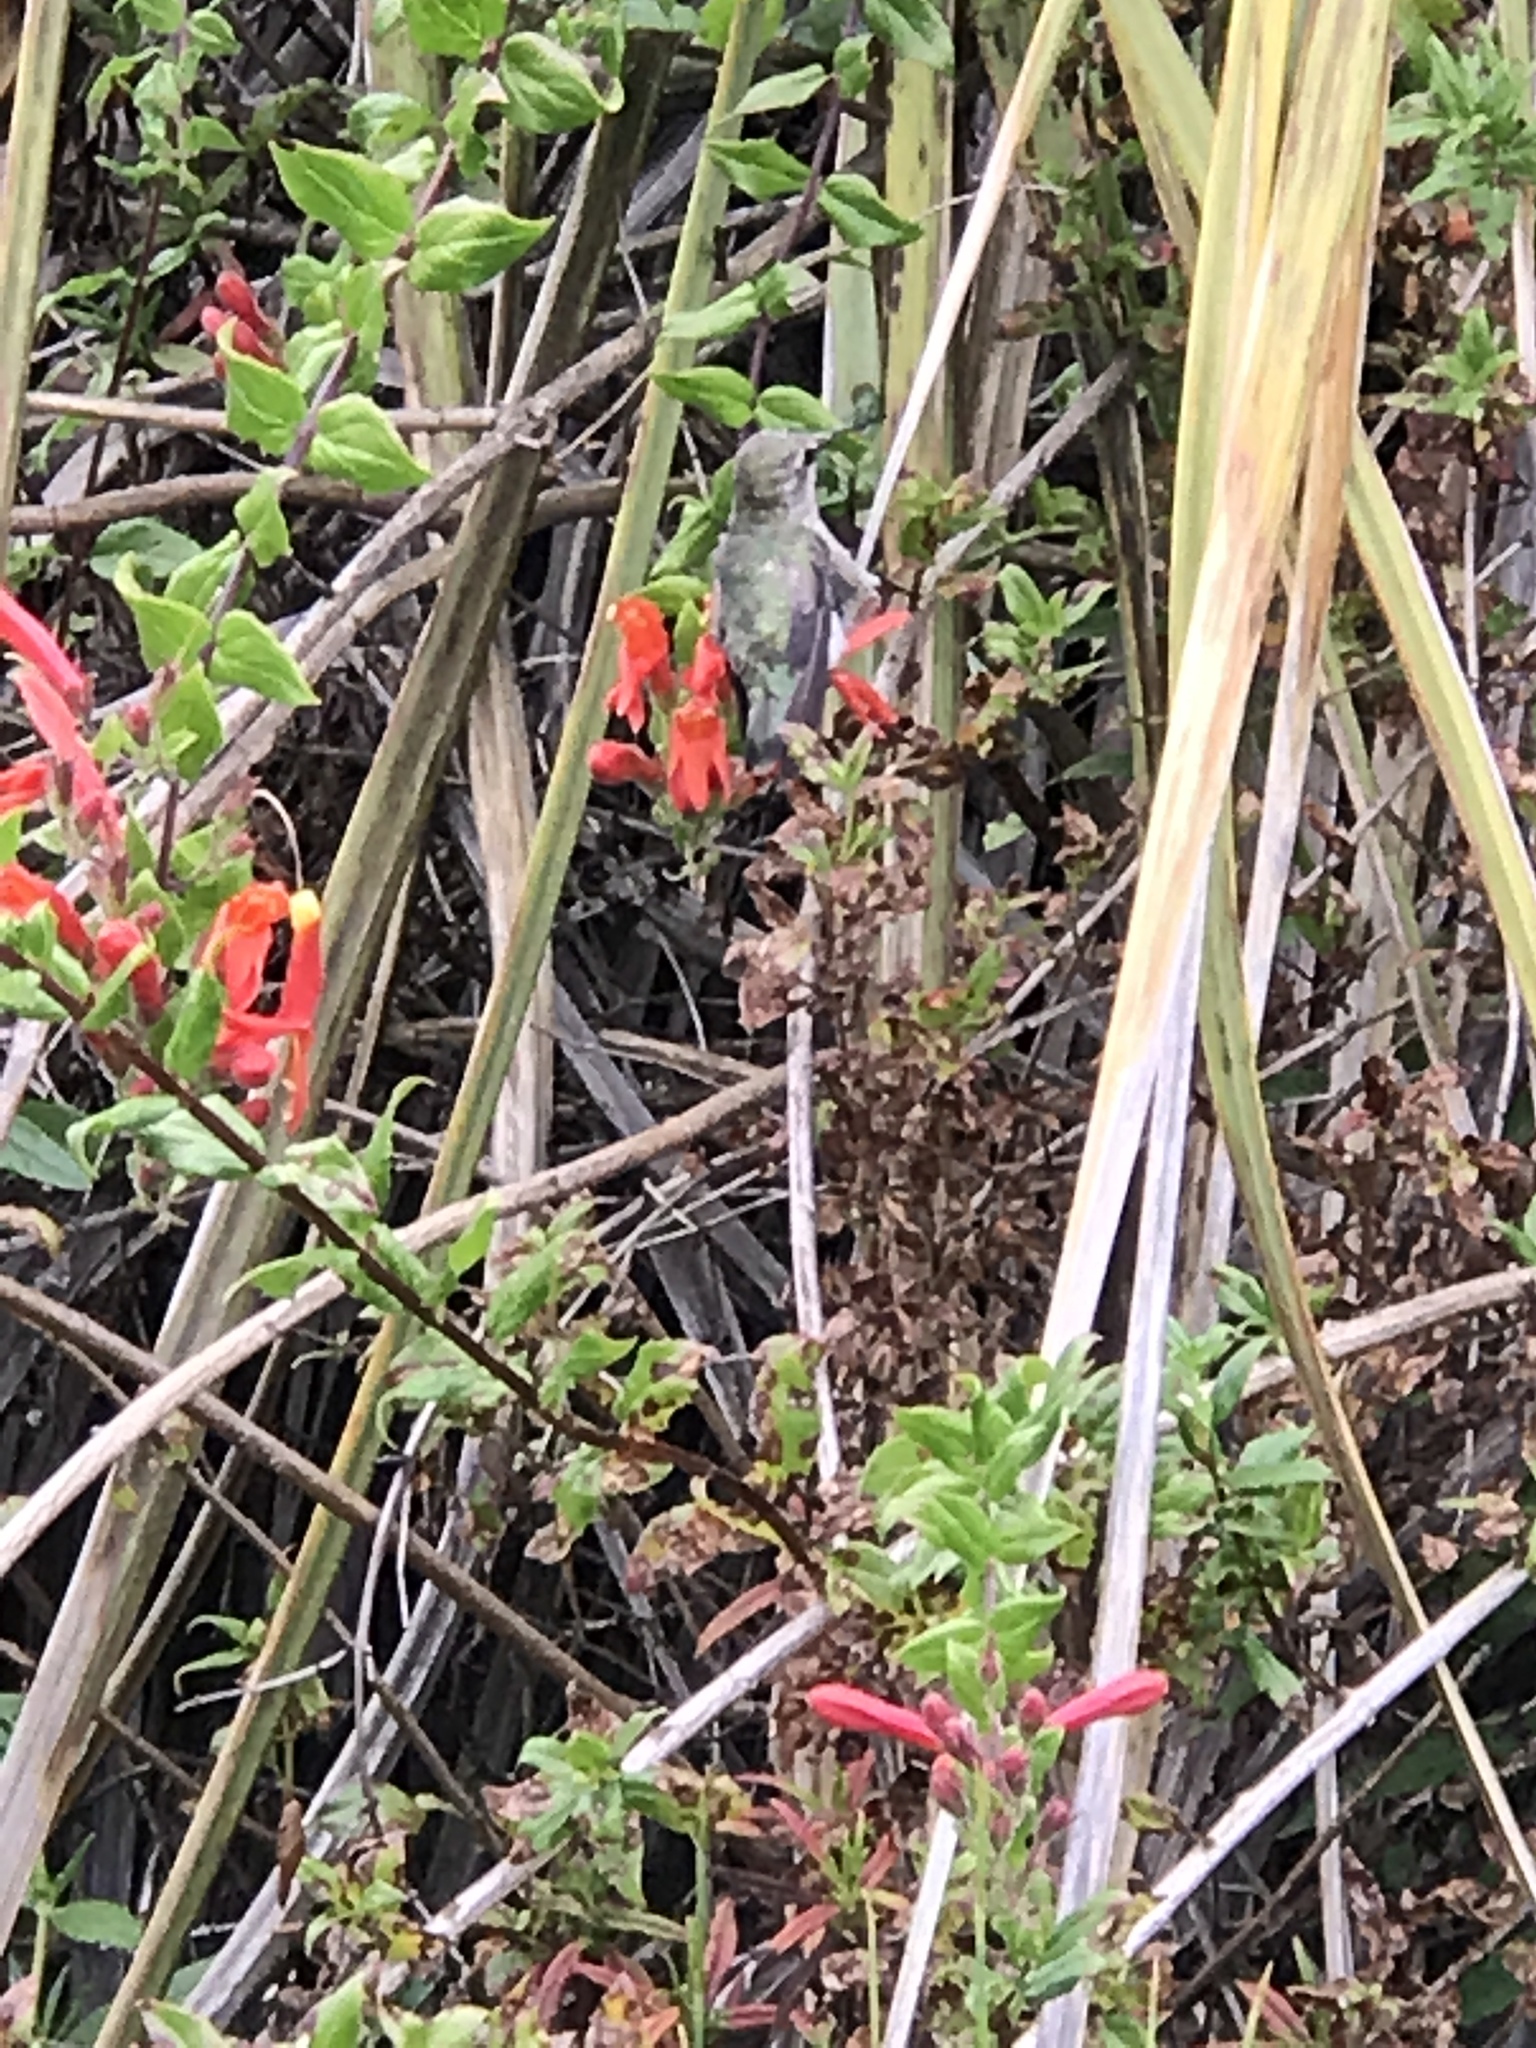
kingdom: Animalia
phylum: Chordata
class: Aves
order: Apodiformes
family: Trochilidae
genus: Calypte
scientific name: Calypte anna
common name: Anna's hummingbird
